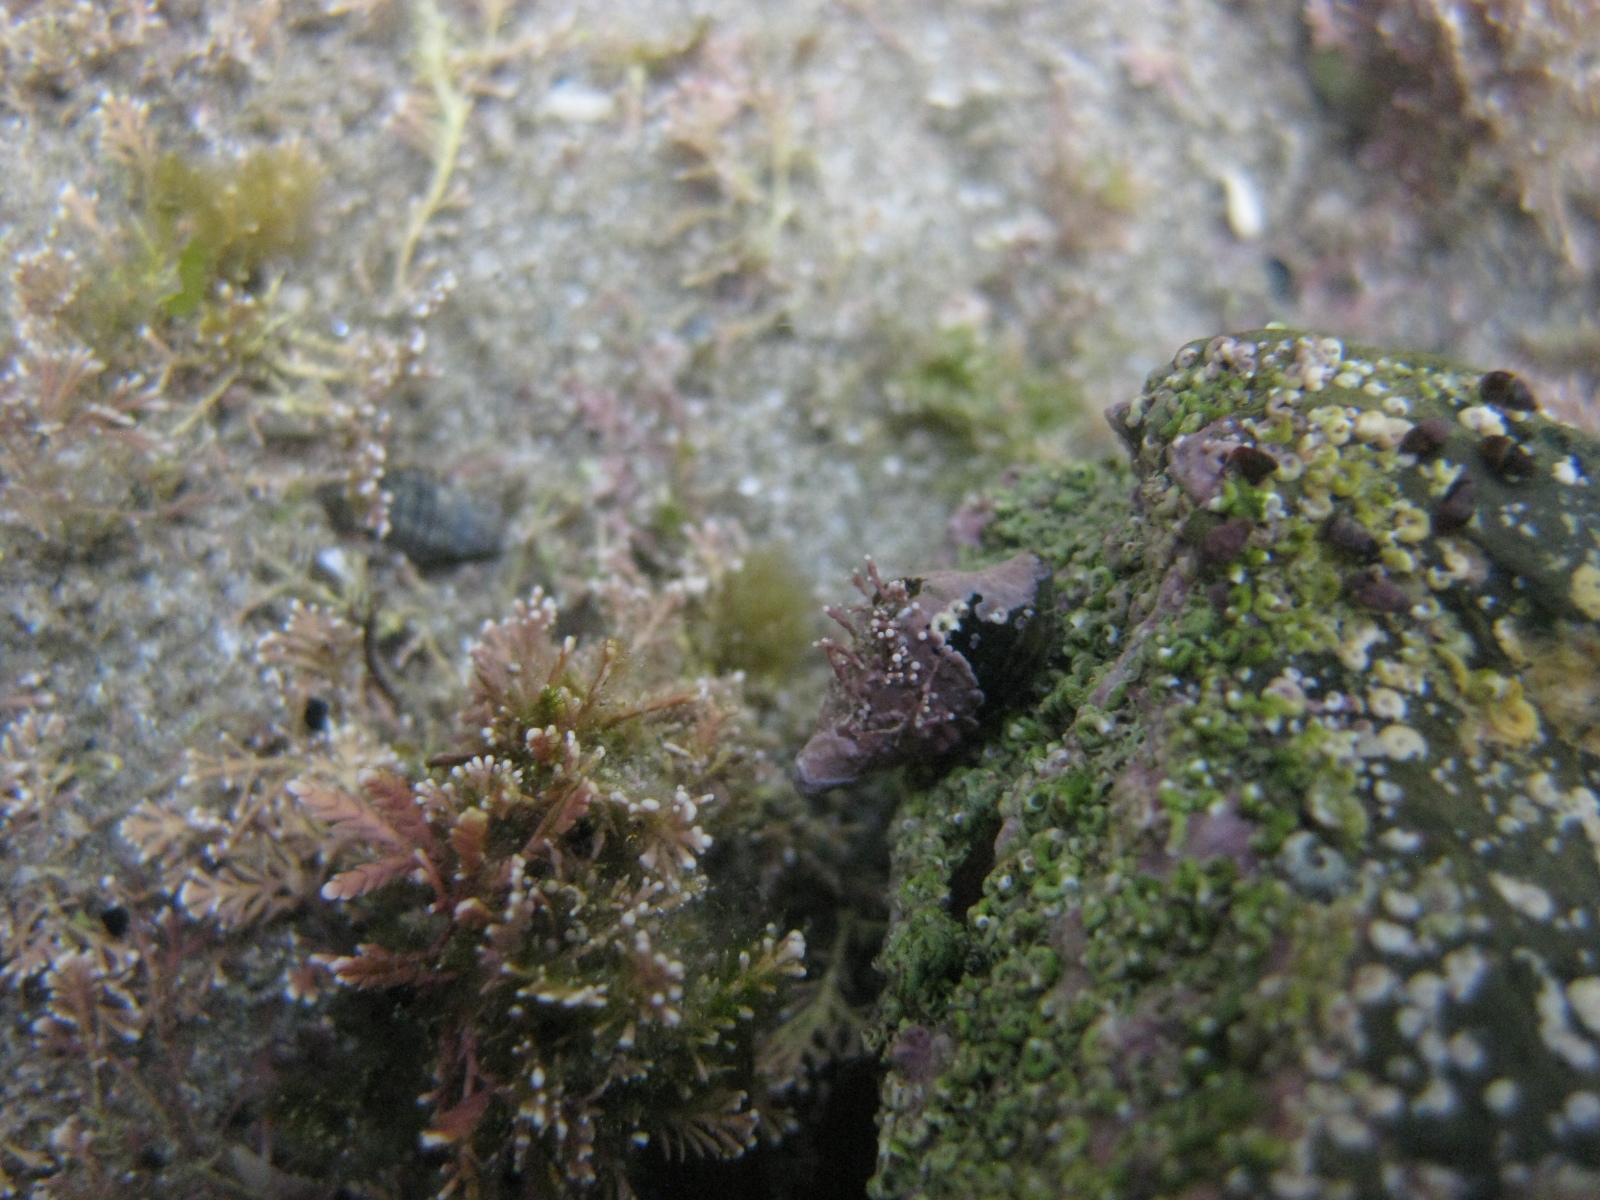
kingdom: Animalia
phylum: Mollusca
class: Gastropoda
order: Neogastropoda
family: Fasciolariidae
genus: Taron
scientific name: Taron dubius
